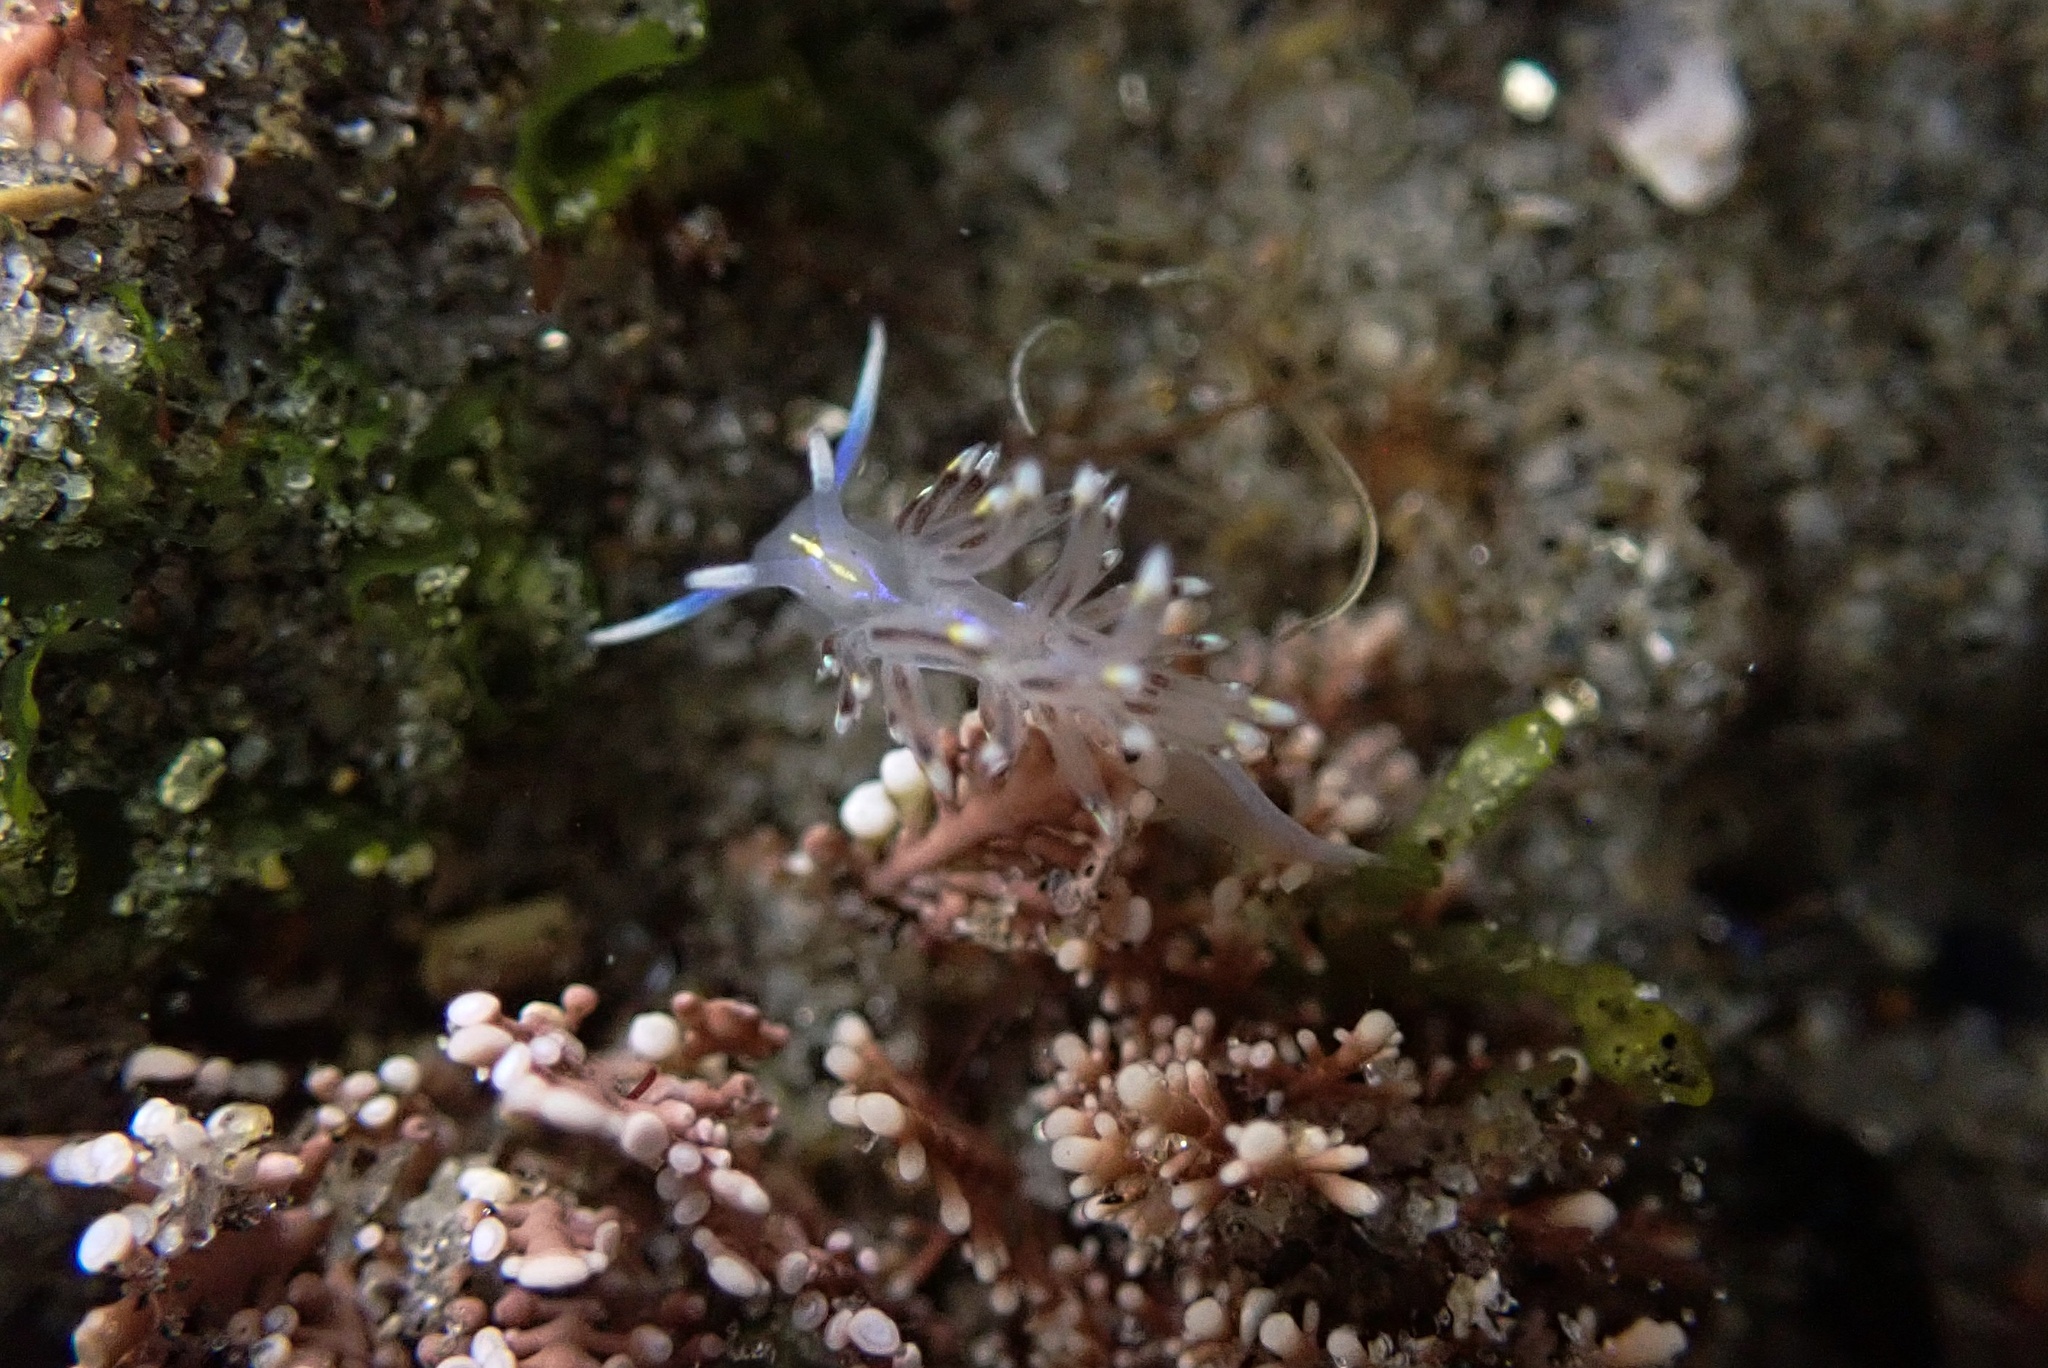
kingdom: Animalia
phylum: Mollusca
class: Gastropoda
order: Nudibranchia
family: Myrrhinidae
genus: Hermissenda
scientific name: Hermissenda opalescens
